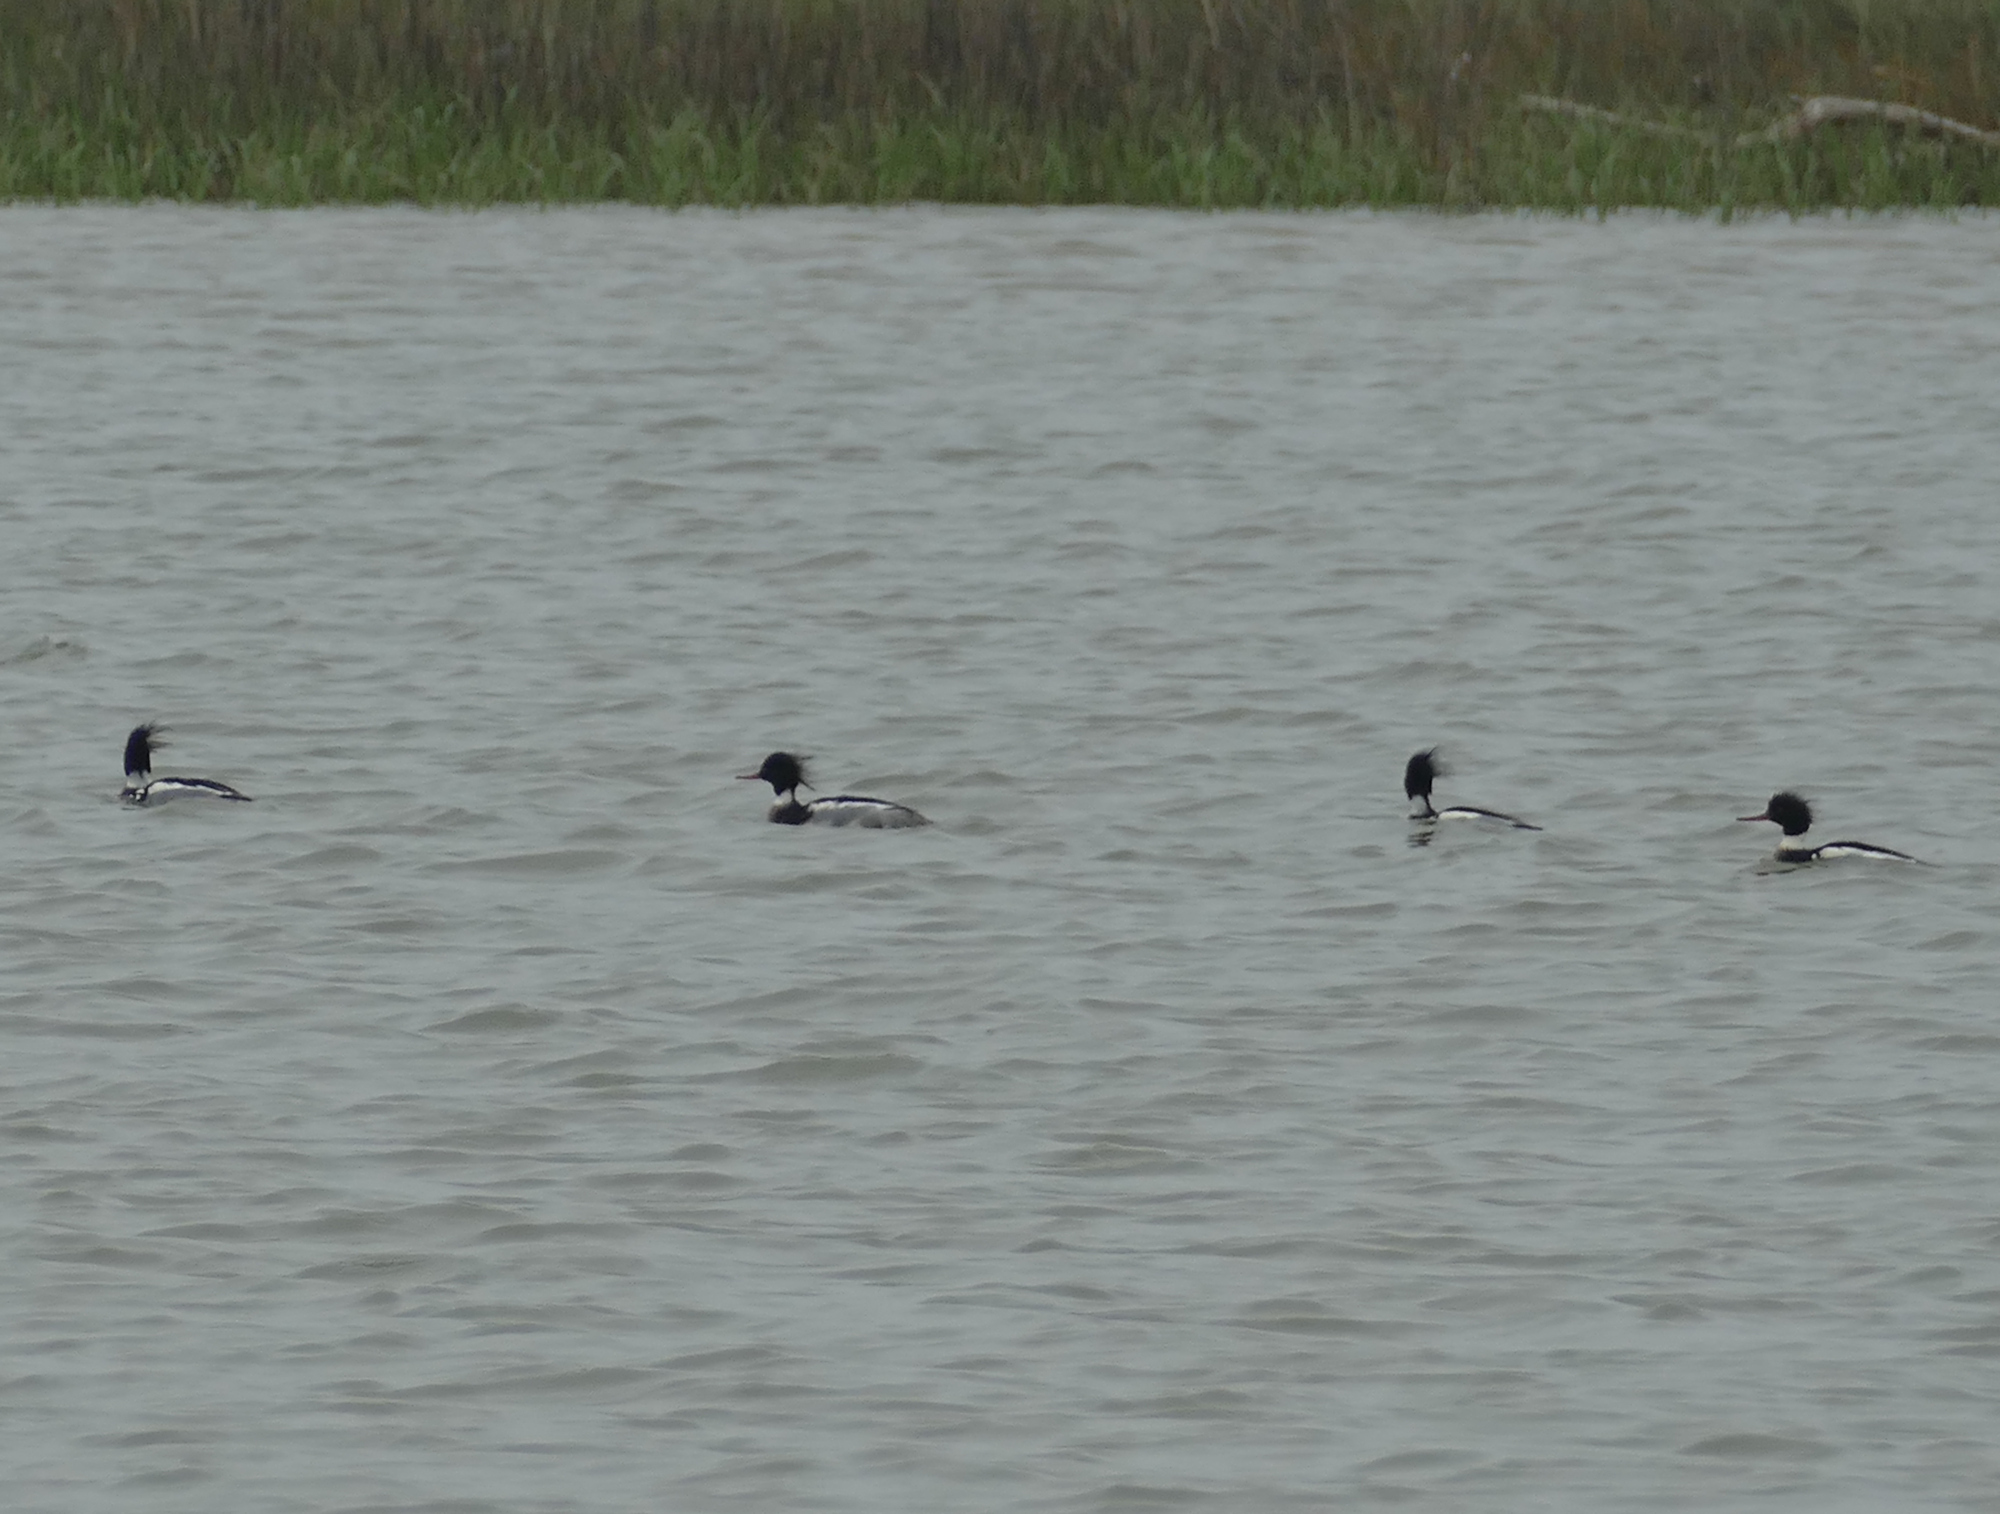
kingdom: Animalia
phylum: Chordata
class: Aves
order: Anseriformes
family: Anatidae
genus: Mergus
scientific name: Mergus serrator
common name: Red-breasted merganser
